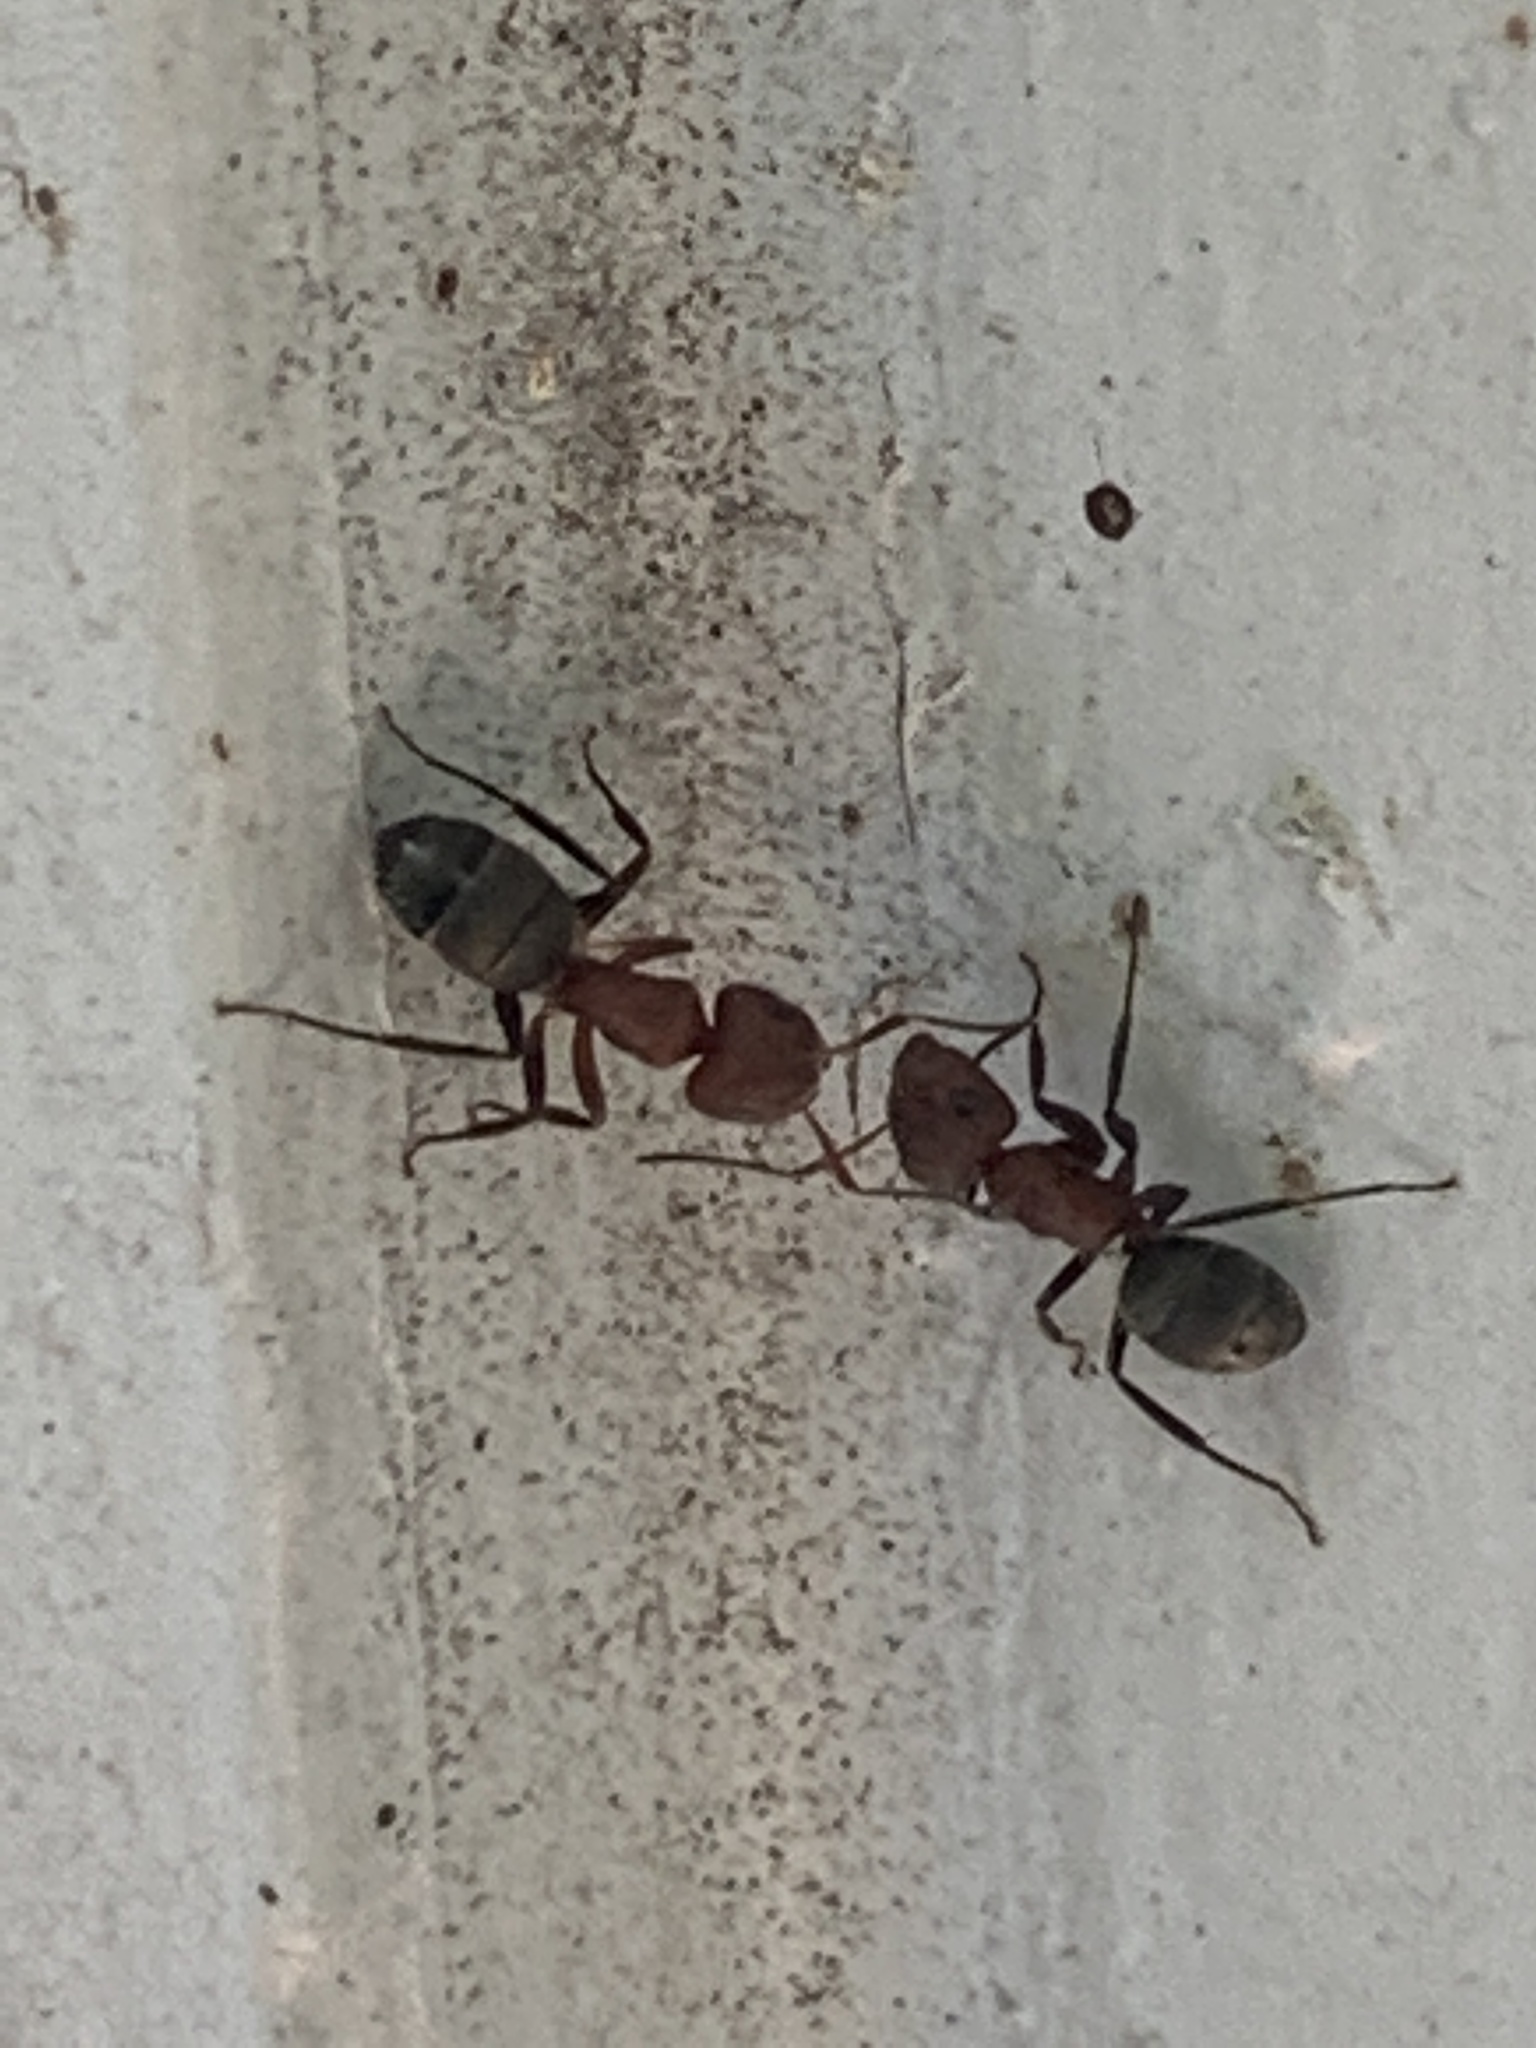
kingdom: Animalia
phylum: Arthropoda
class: Insecta
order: Hymenoptera
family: Formicidae
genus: Camponotus
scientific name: Camponotus planatus
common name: Compact carpenter ant
